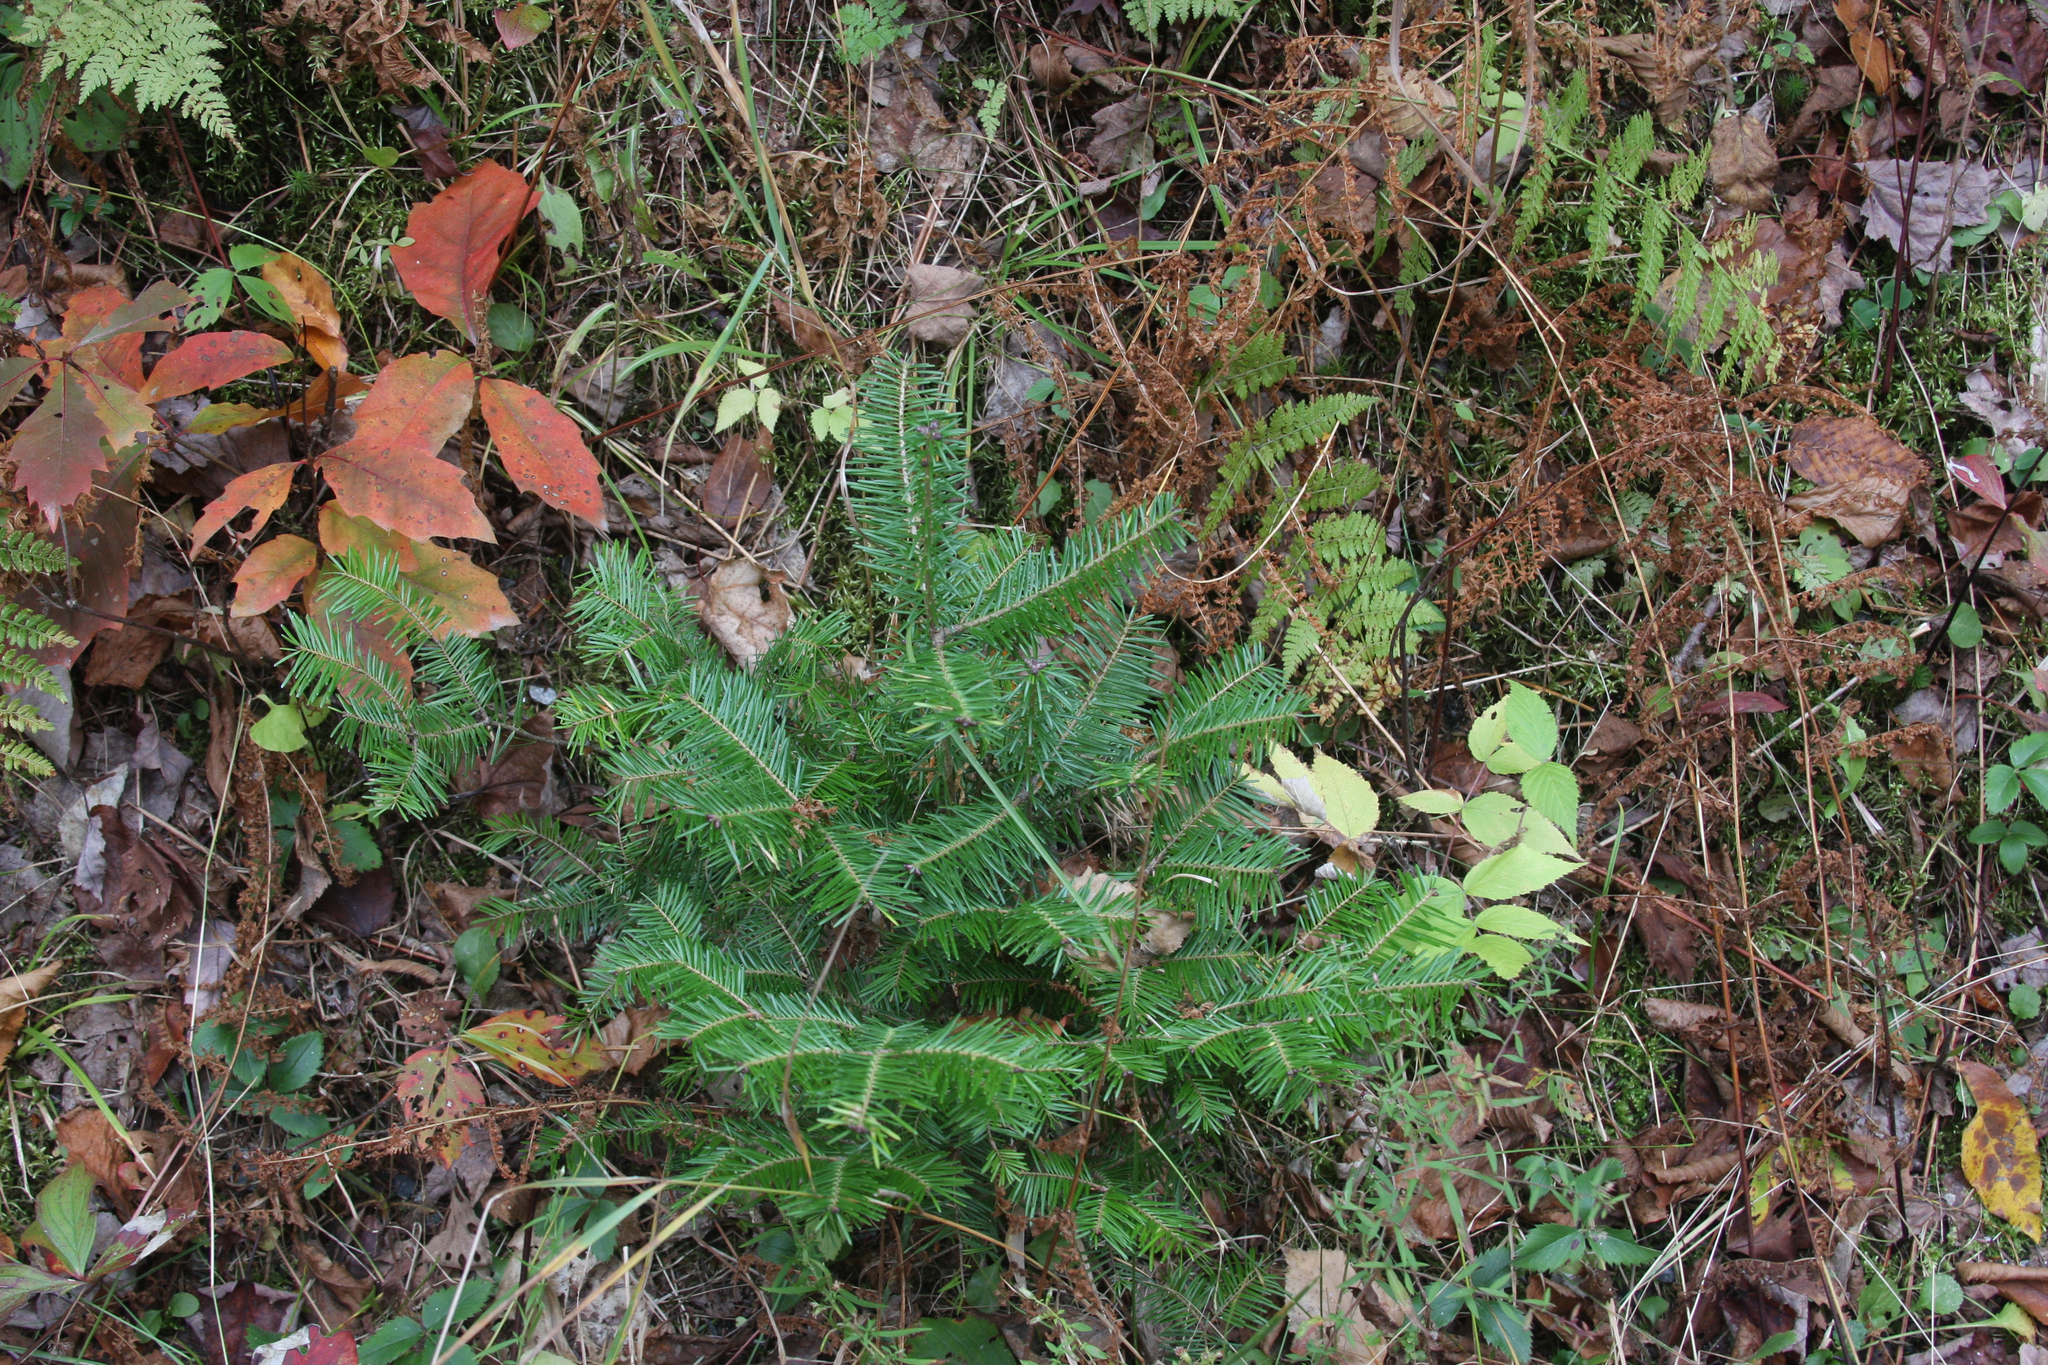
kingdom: Plantae
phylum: Tracheophyta
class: Pinopsida
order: Pinales
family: Pinaceae
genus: Abies
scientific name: Abies balsamea
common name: Balsam fir
